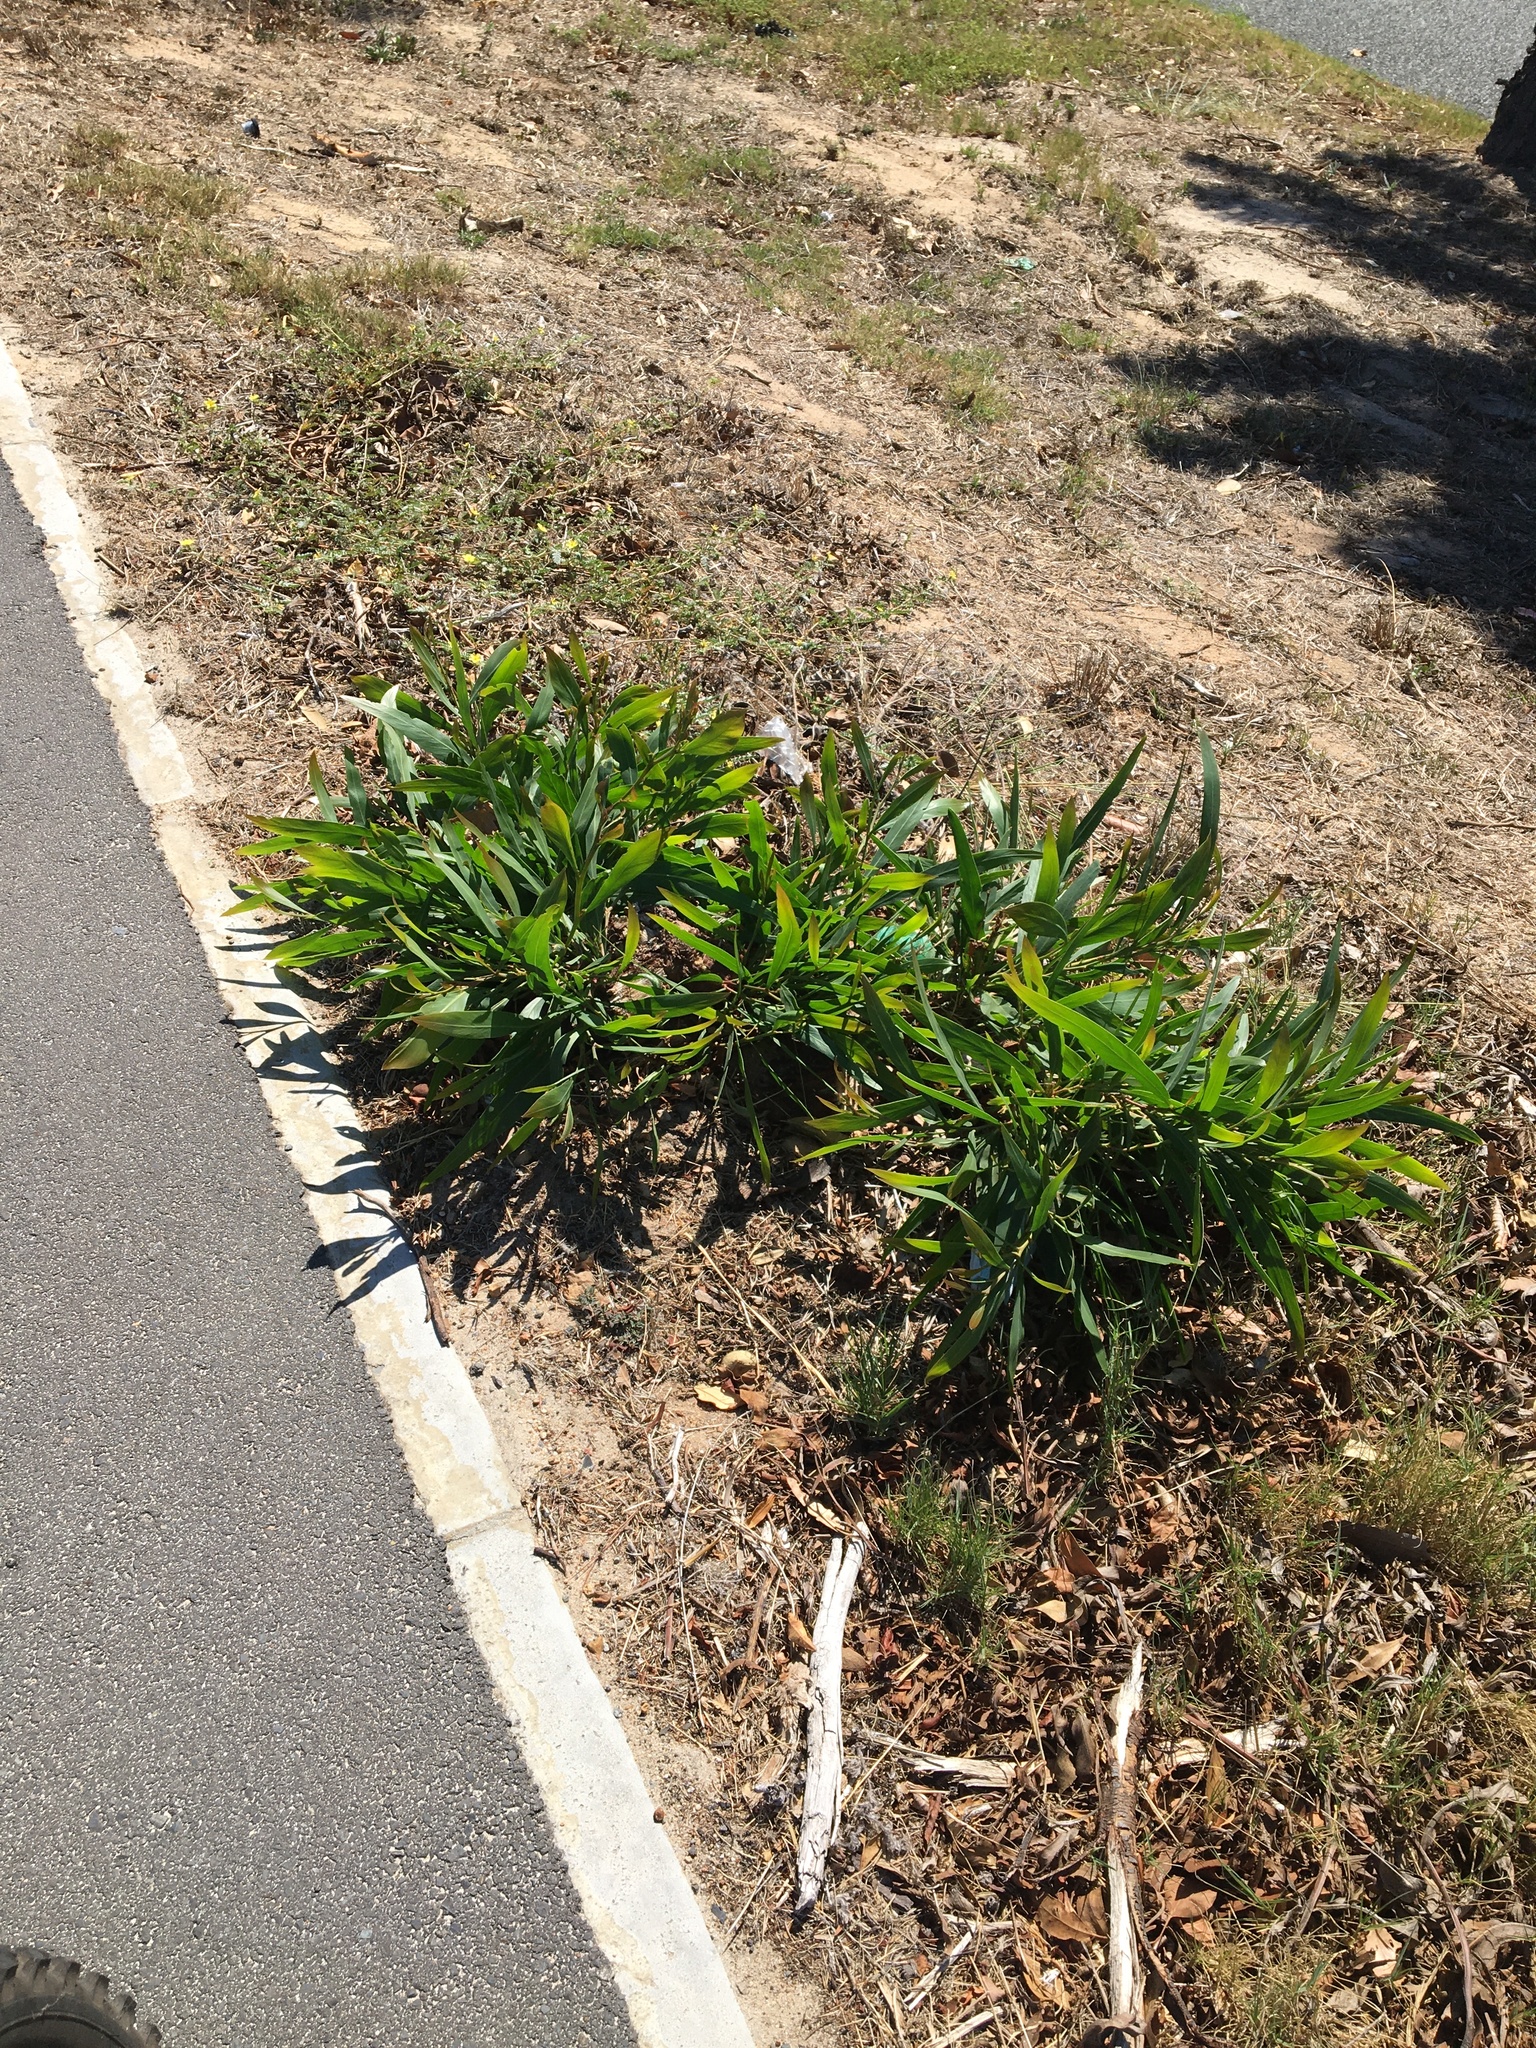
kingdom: Plantae
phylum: Tracheophyta
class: Magnoliopsida
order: Fabales
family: Fabaceae
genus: Acacia
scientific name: Acacia saligna
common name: Orange wattle
